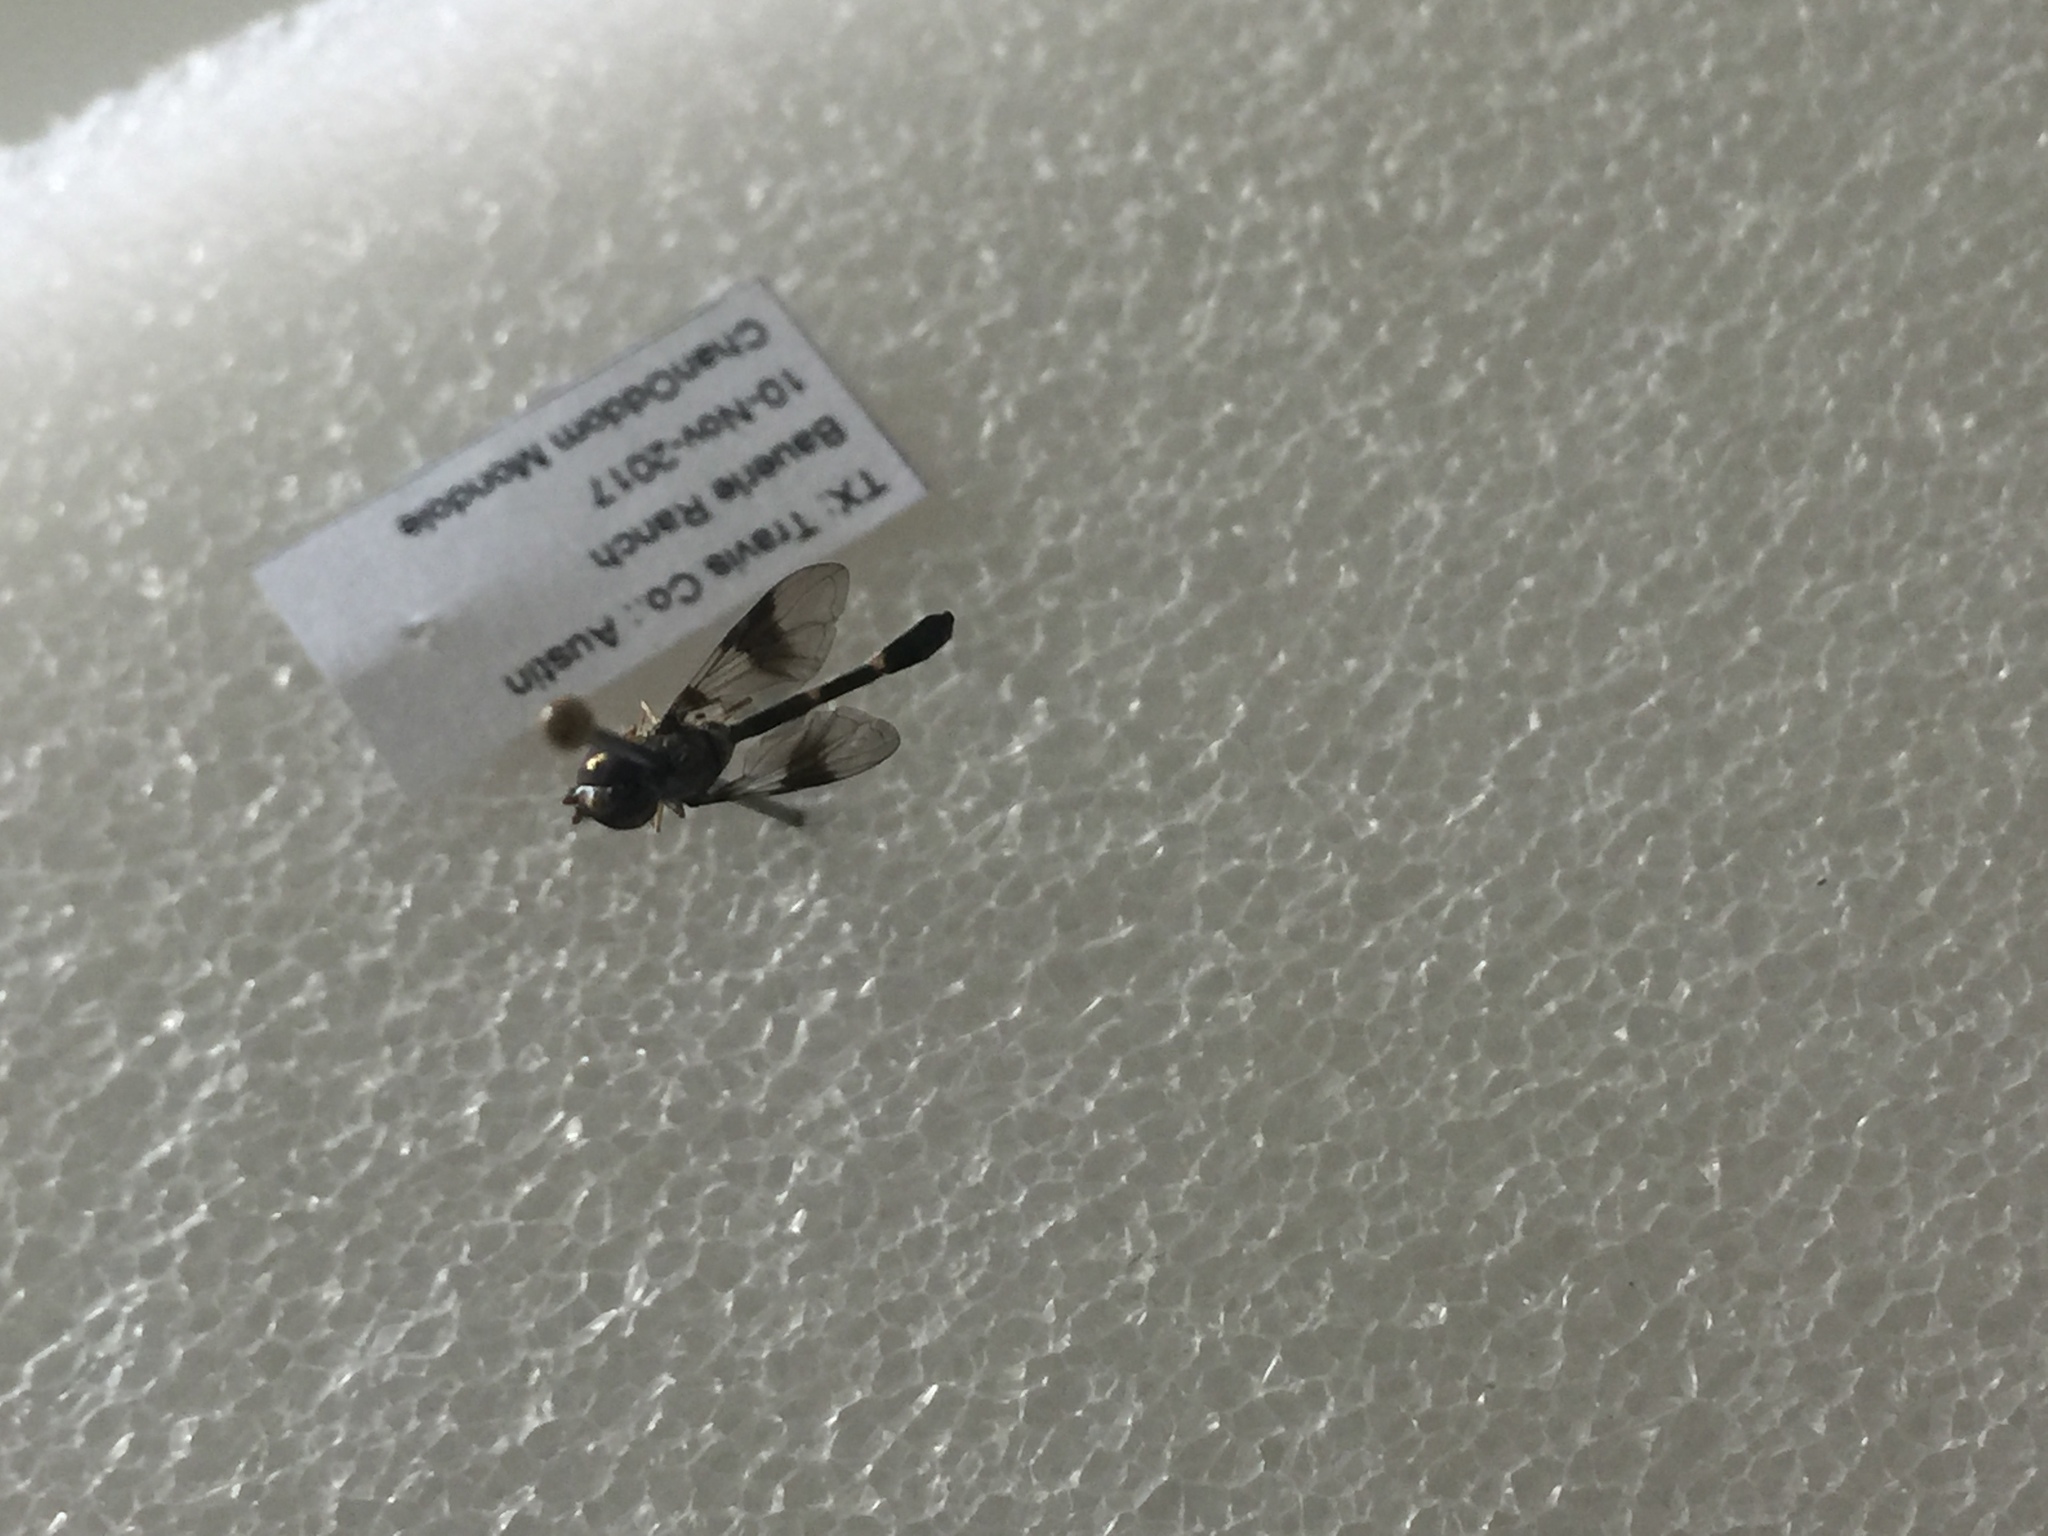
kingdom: Animalia
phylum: Arthropoda
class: Insecta
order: Diptera
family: Syrphidae
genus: Hypocritanus
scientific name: Hypocritanus fascipennis
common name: Eastern band-winged hover fly
